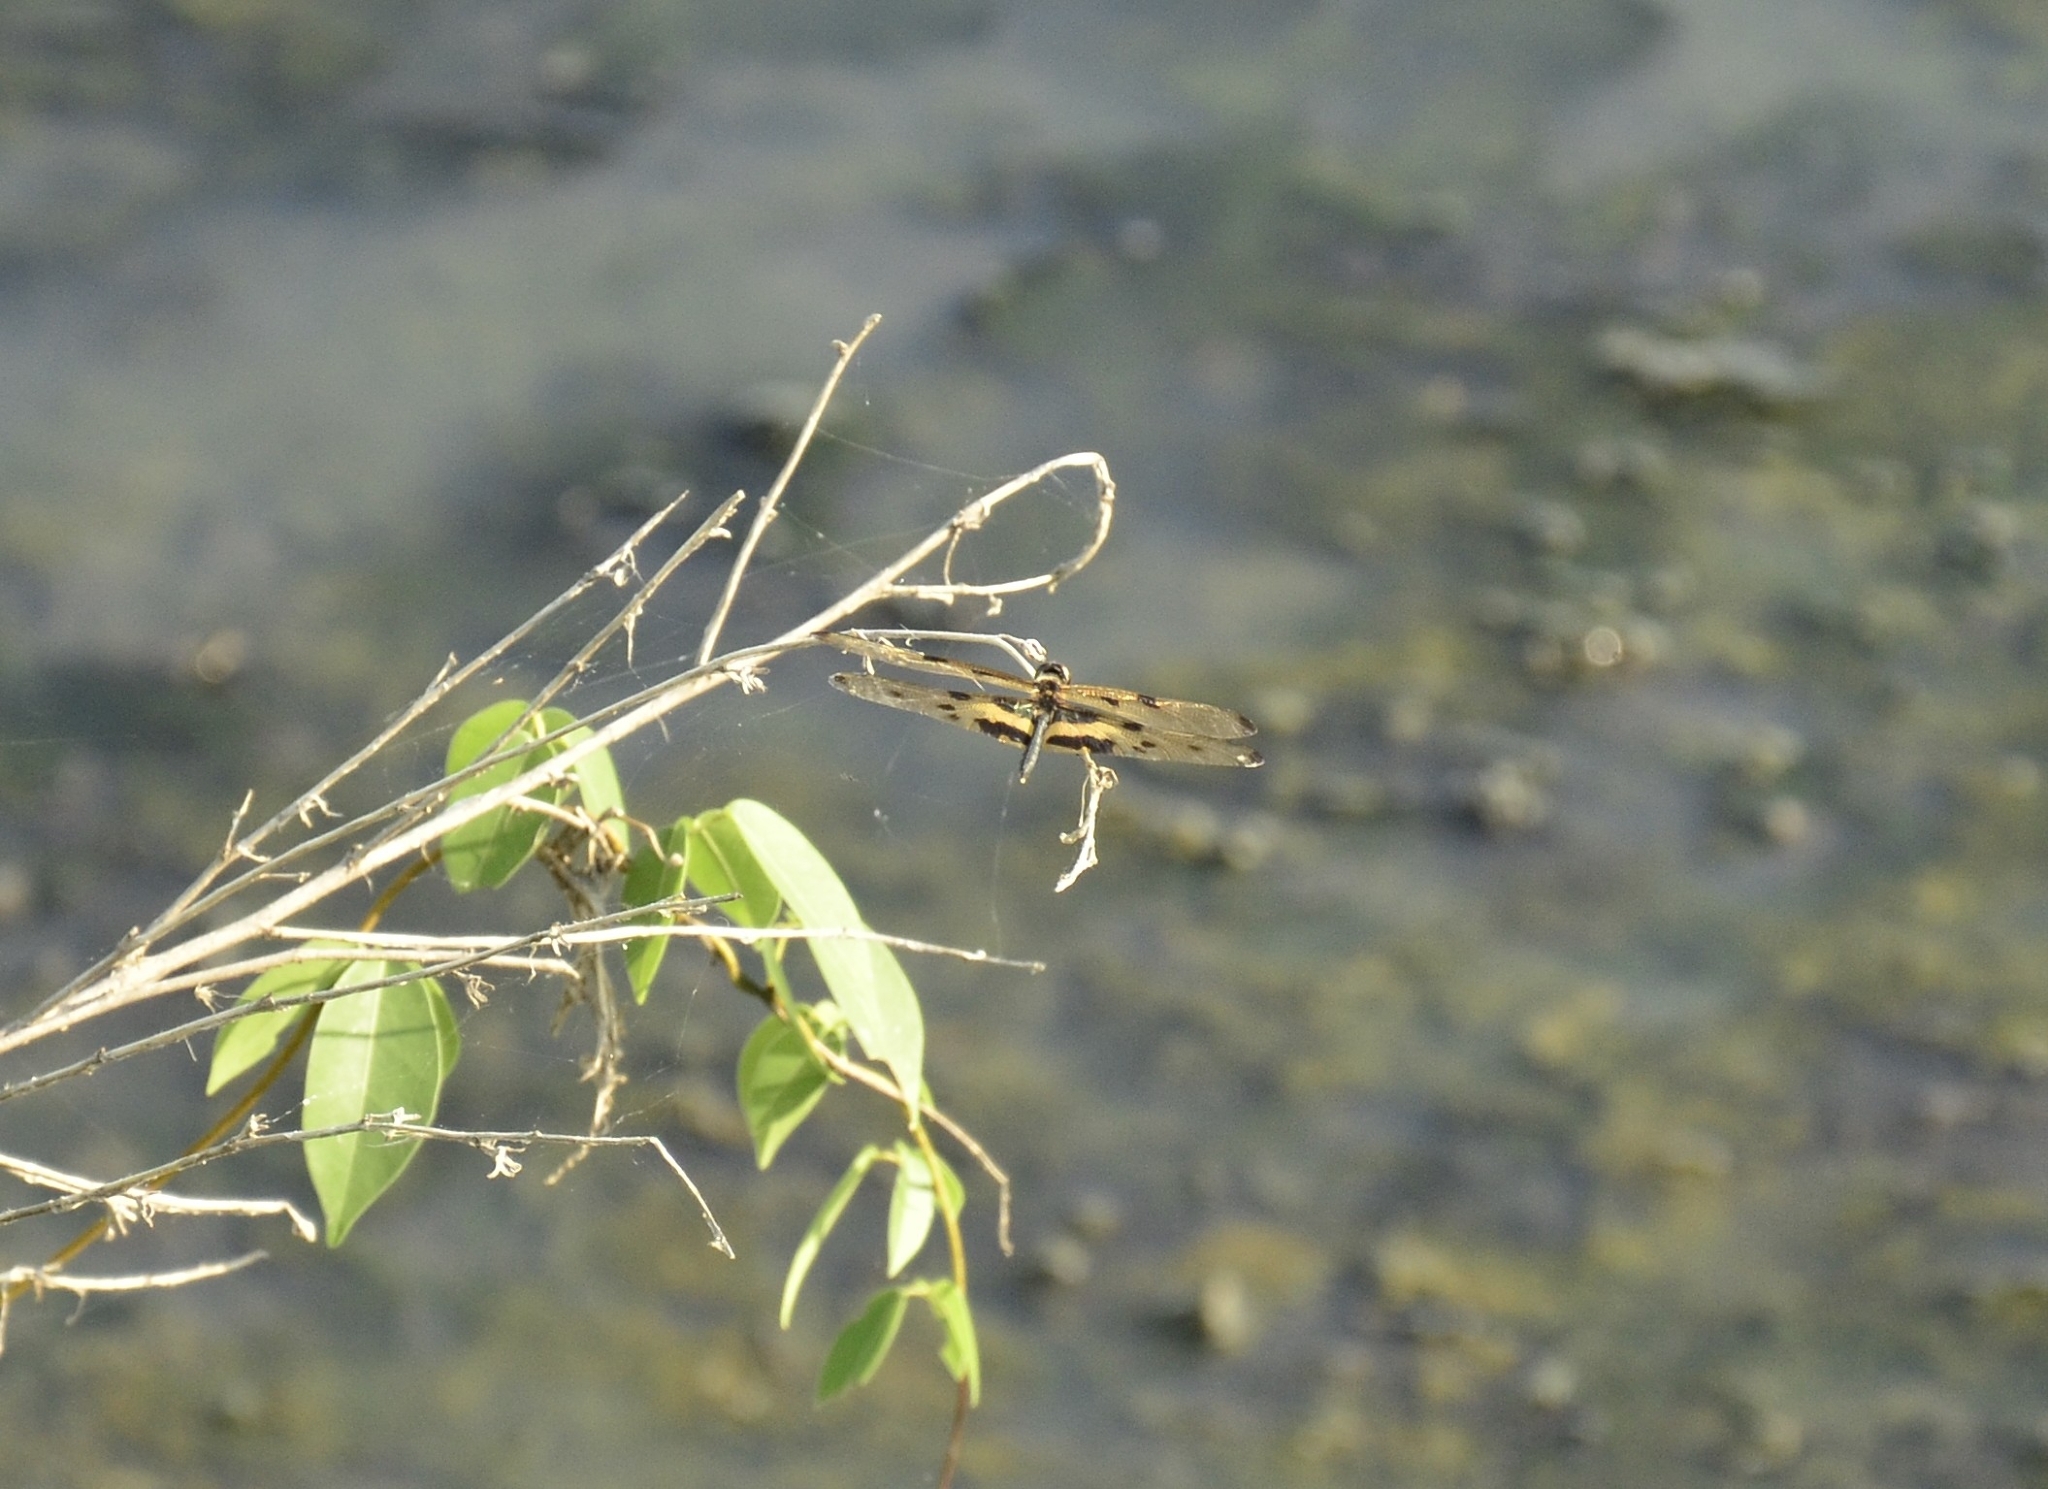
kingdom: Animalia
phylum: Arthropoda
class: Insecta
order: Odonata
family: Libellulidae
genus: Rhyothemis
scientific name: Rhyothemis variegata
